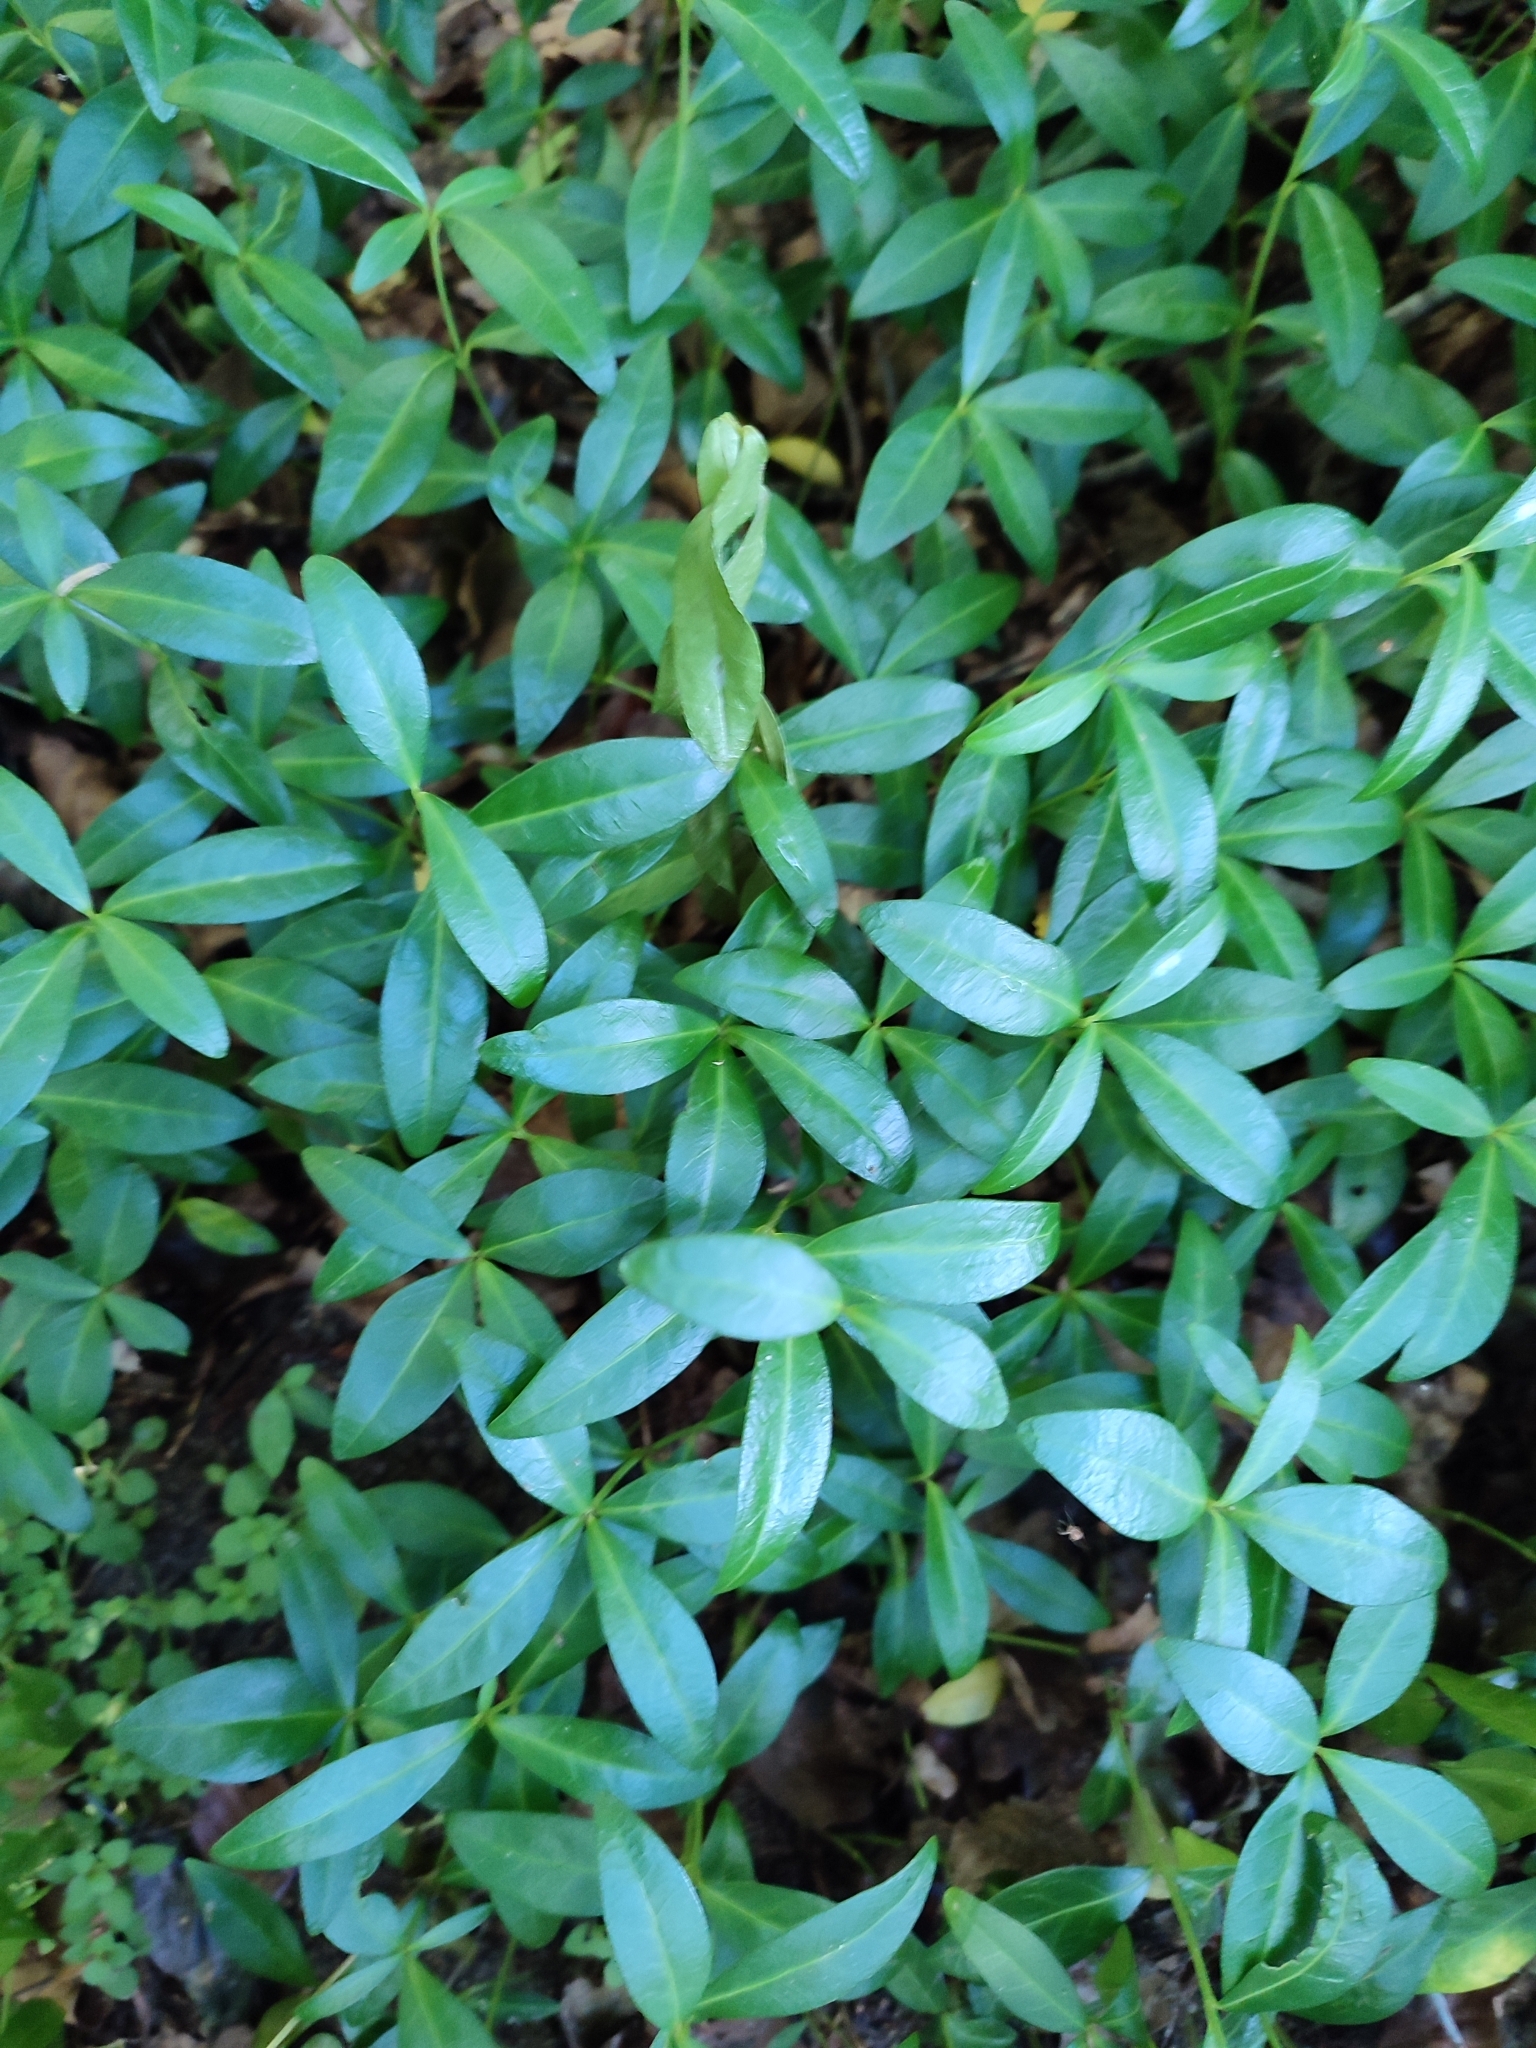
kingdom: Plantae
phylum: Tracheophyta
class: Magnoliopsida
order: Gentianales
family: Apocynaceae
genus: Vinca
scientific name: Vinca minor
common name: Lesser periwinkle
